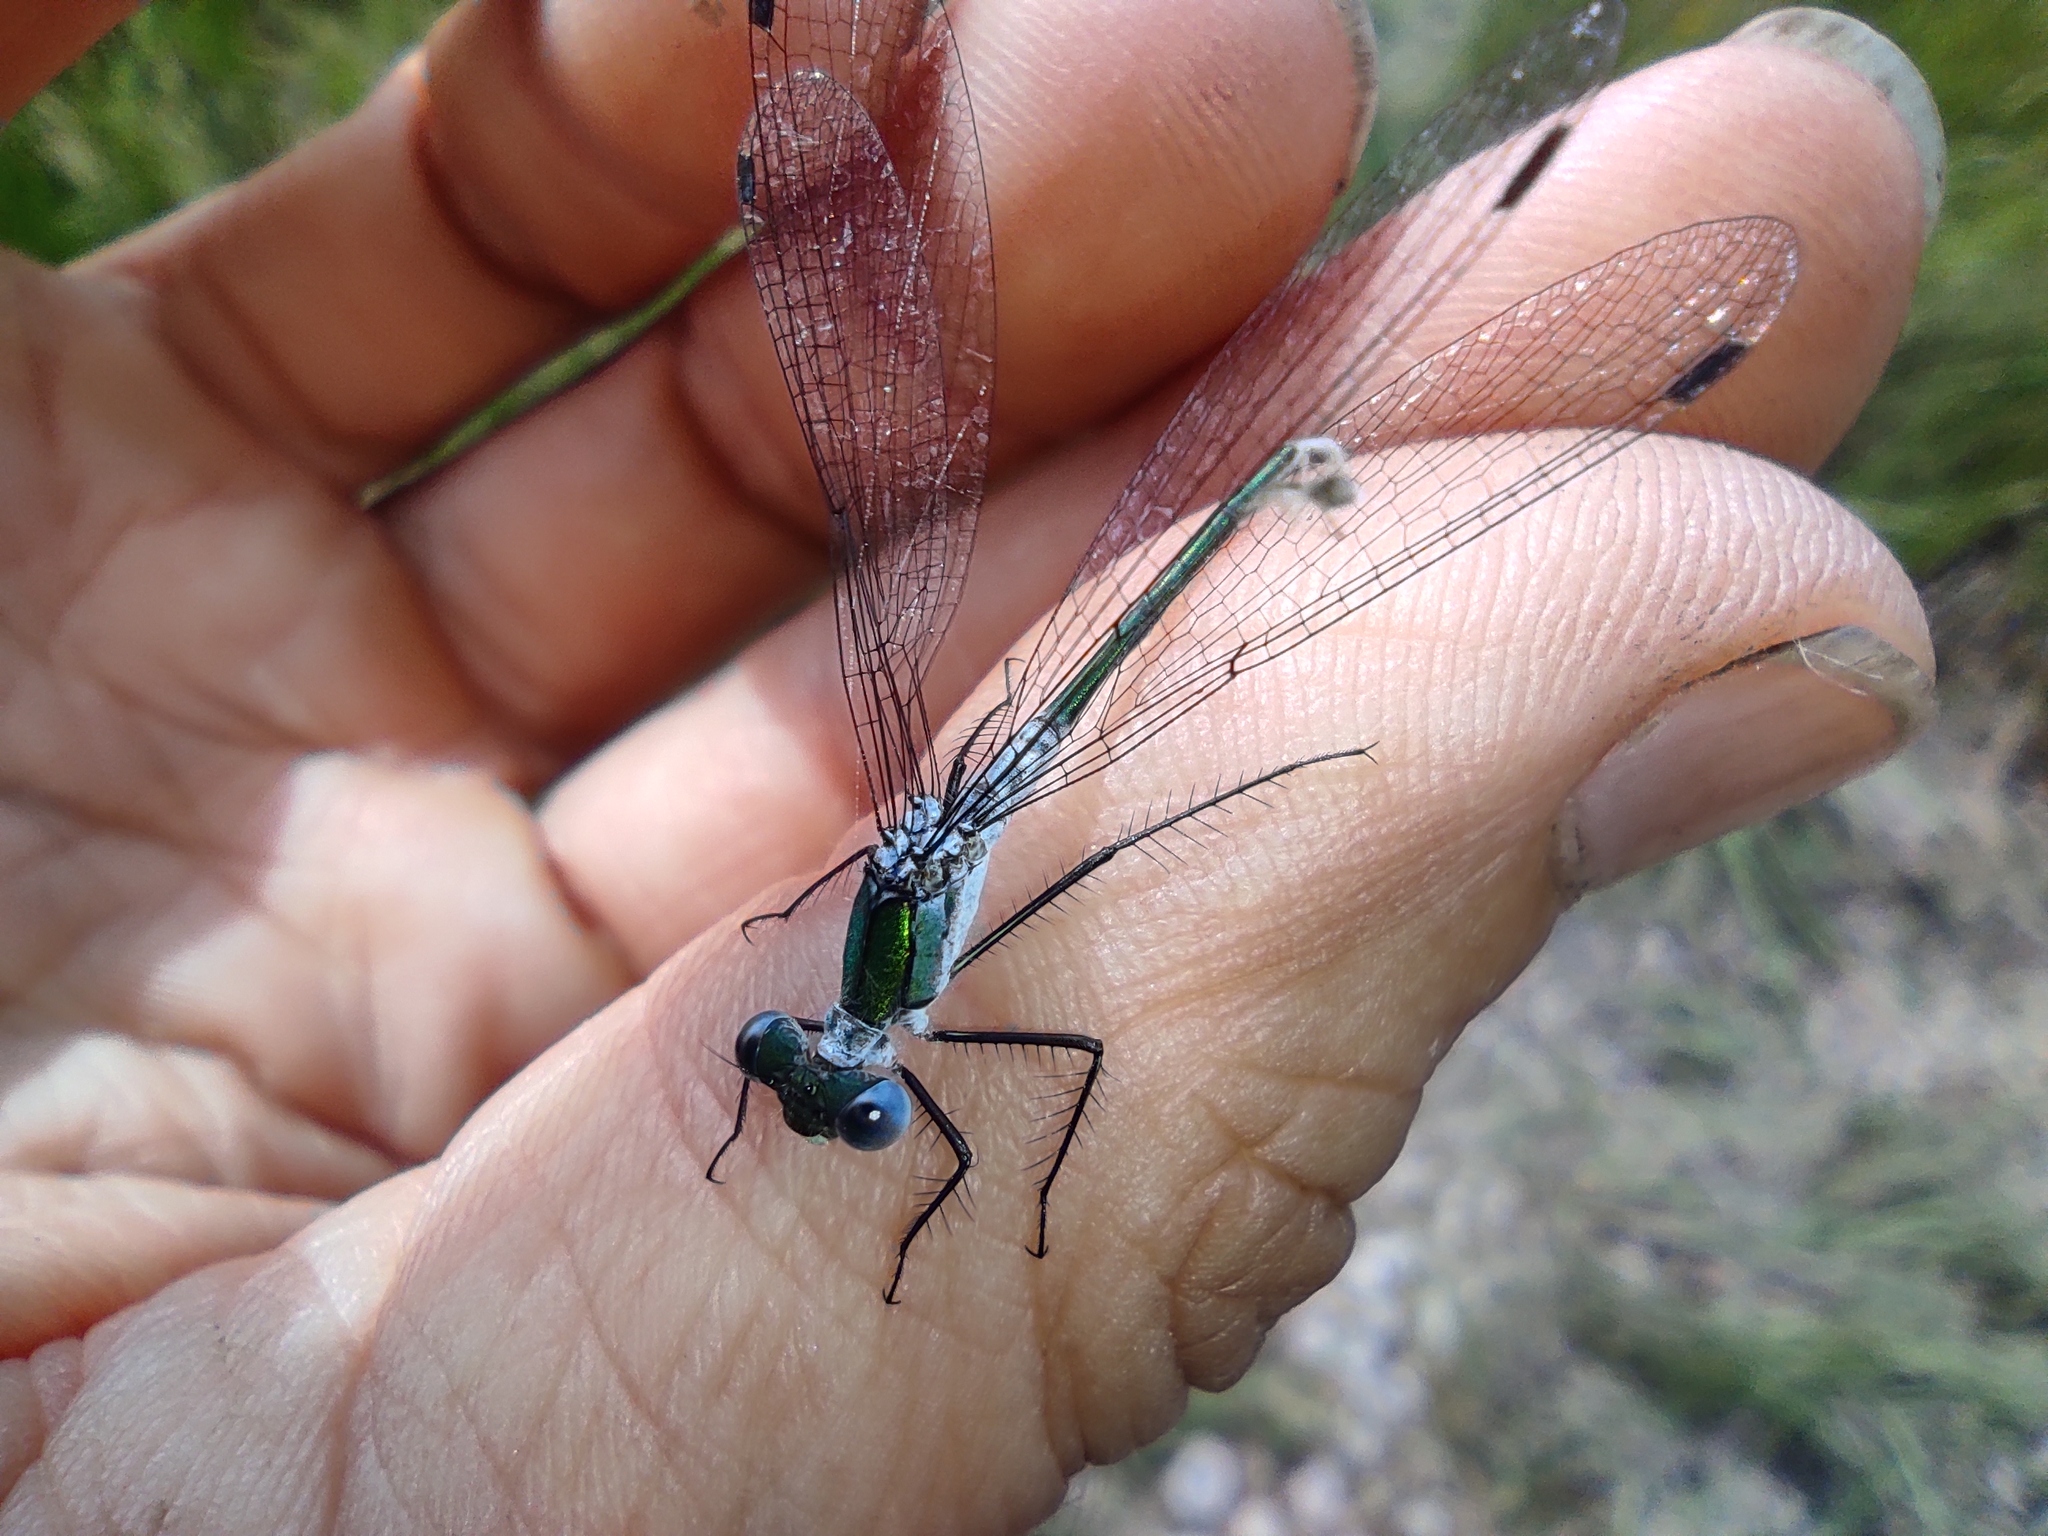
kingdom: Animalia
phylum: Arthropoda
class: Insecta
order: Odonata
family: Lestidae
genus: Lestes
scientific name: Lestes sponsa
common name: Common spreadwing
